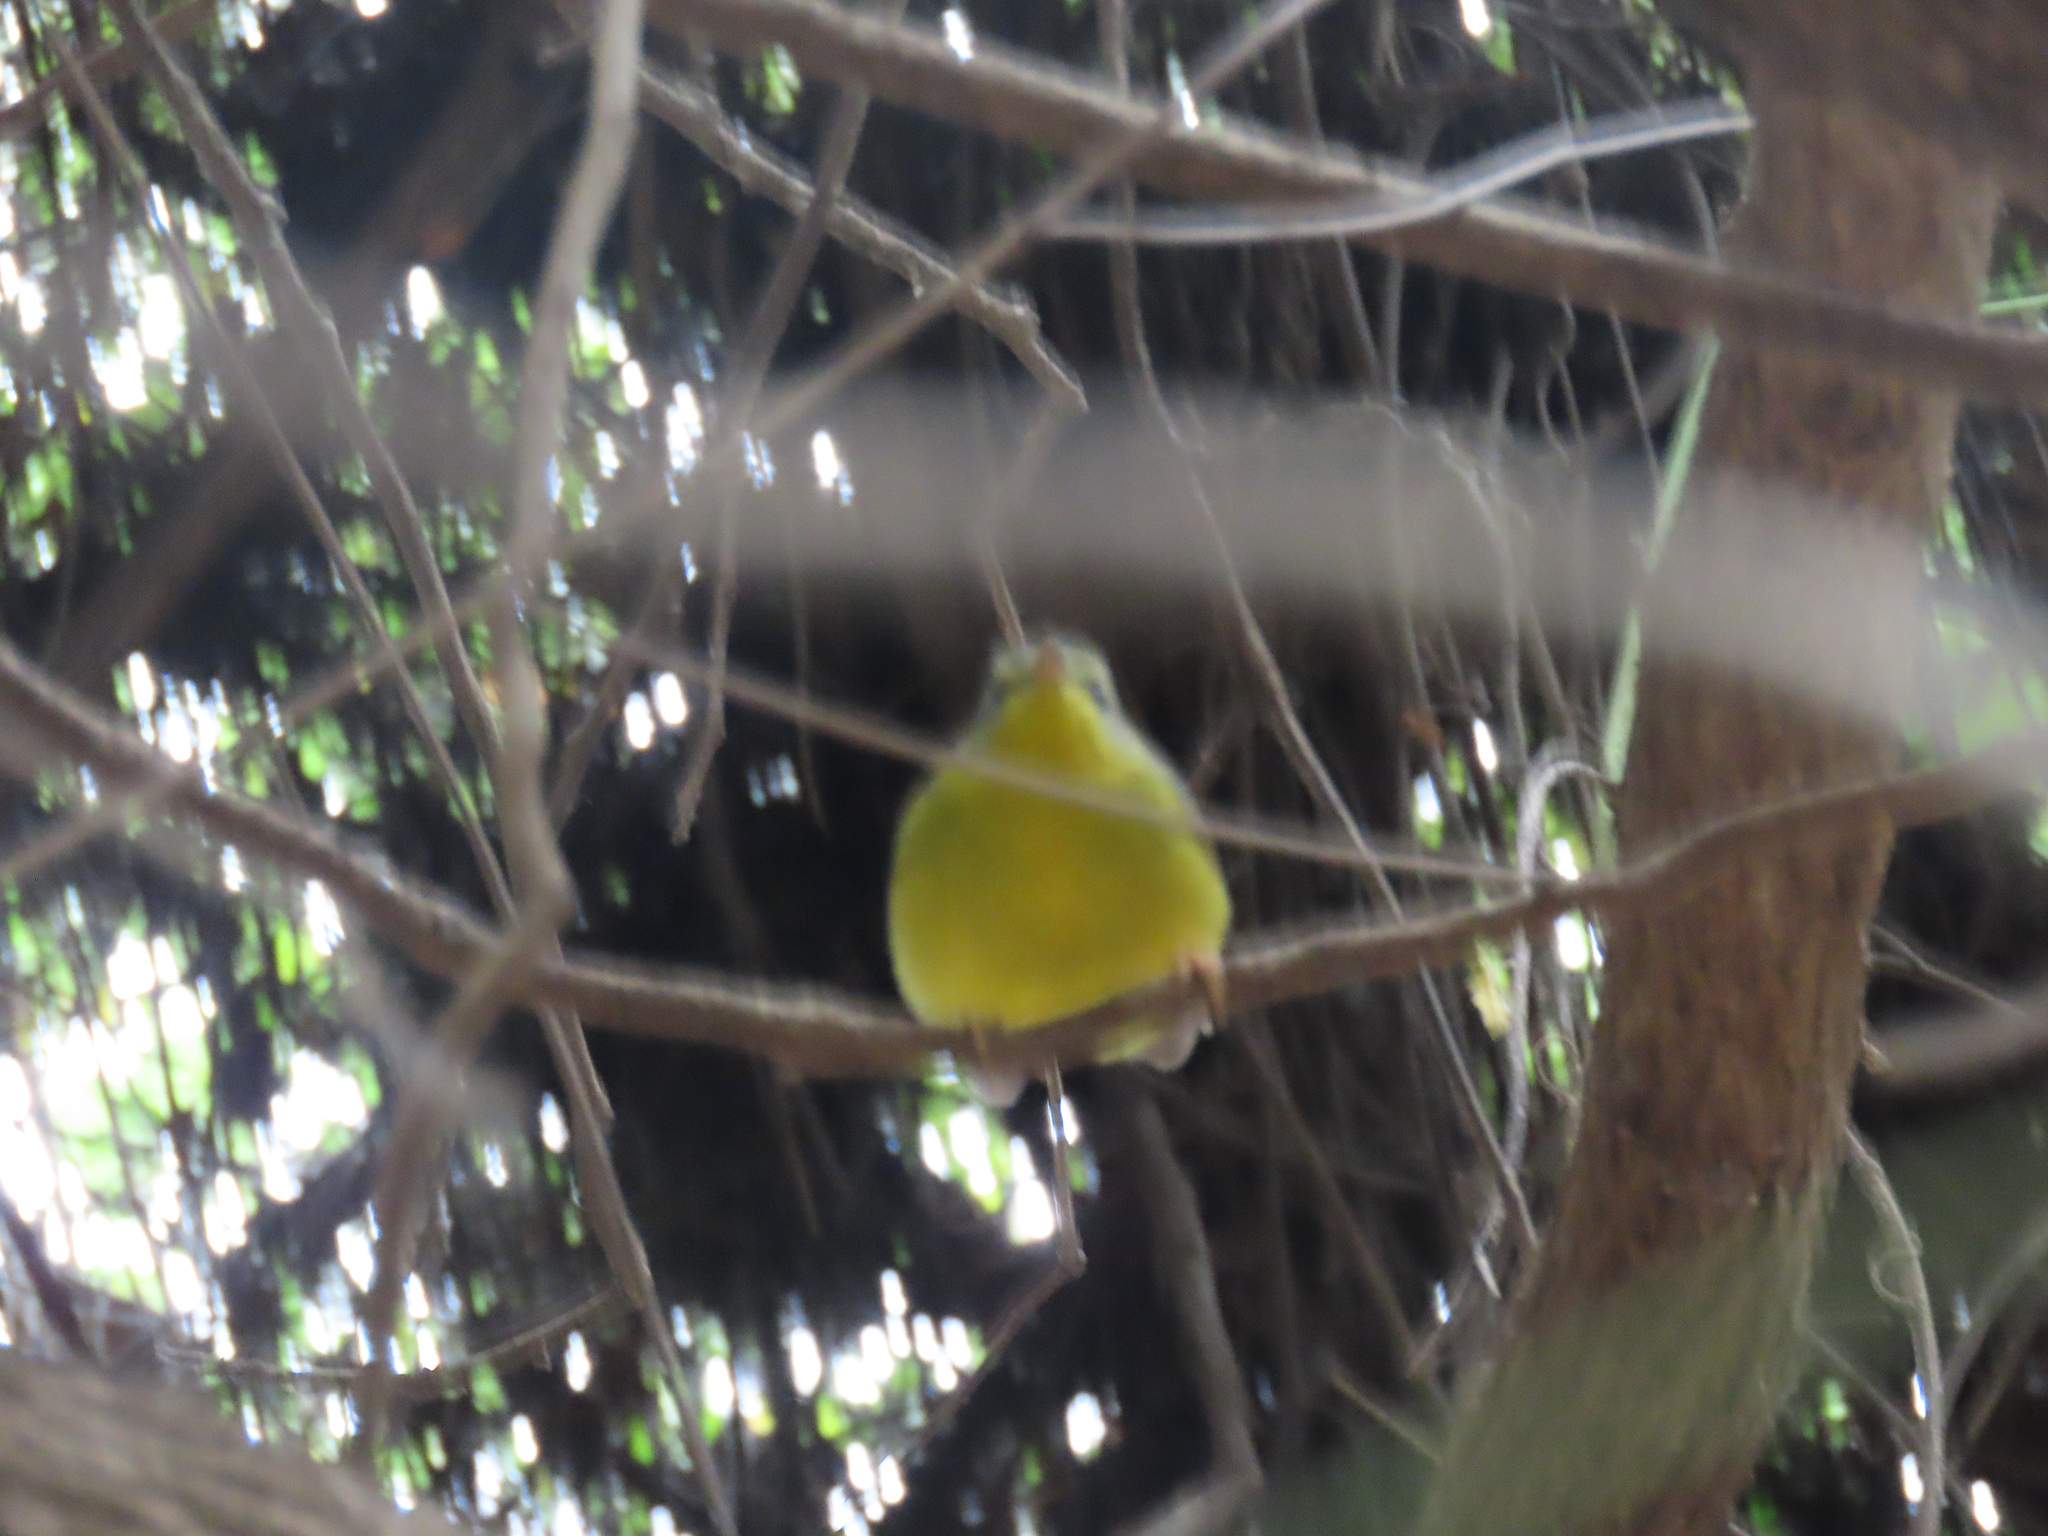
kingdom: Animalia
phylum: Chordata
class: Aves
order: Passeriformes
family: Parulidae
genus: Basileuterus
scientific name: Basileuterus culicivorus
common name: Golden-crowned warbler
